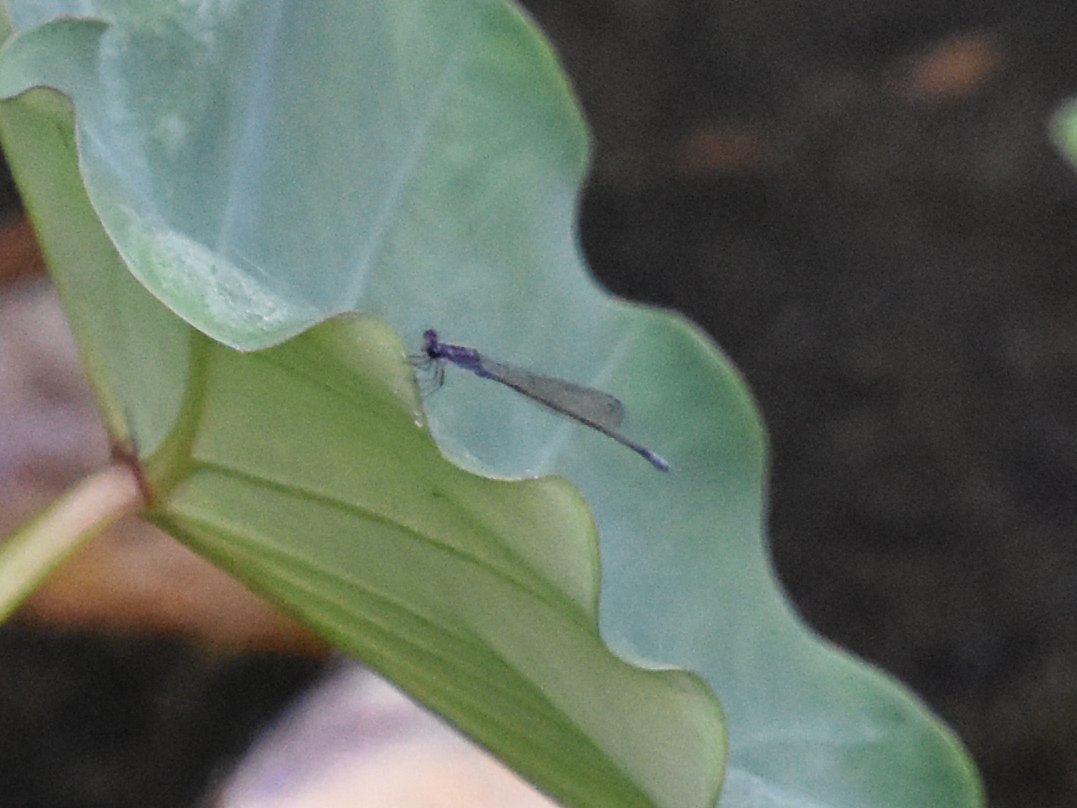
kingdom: Animalia
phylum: Arthropoda
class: Insecta
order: Odonata
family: Coenagrionidae
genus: Enallagma
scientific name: Enallagma cardenium
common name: Purple bluet
